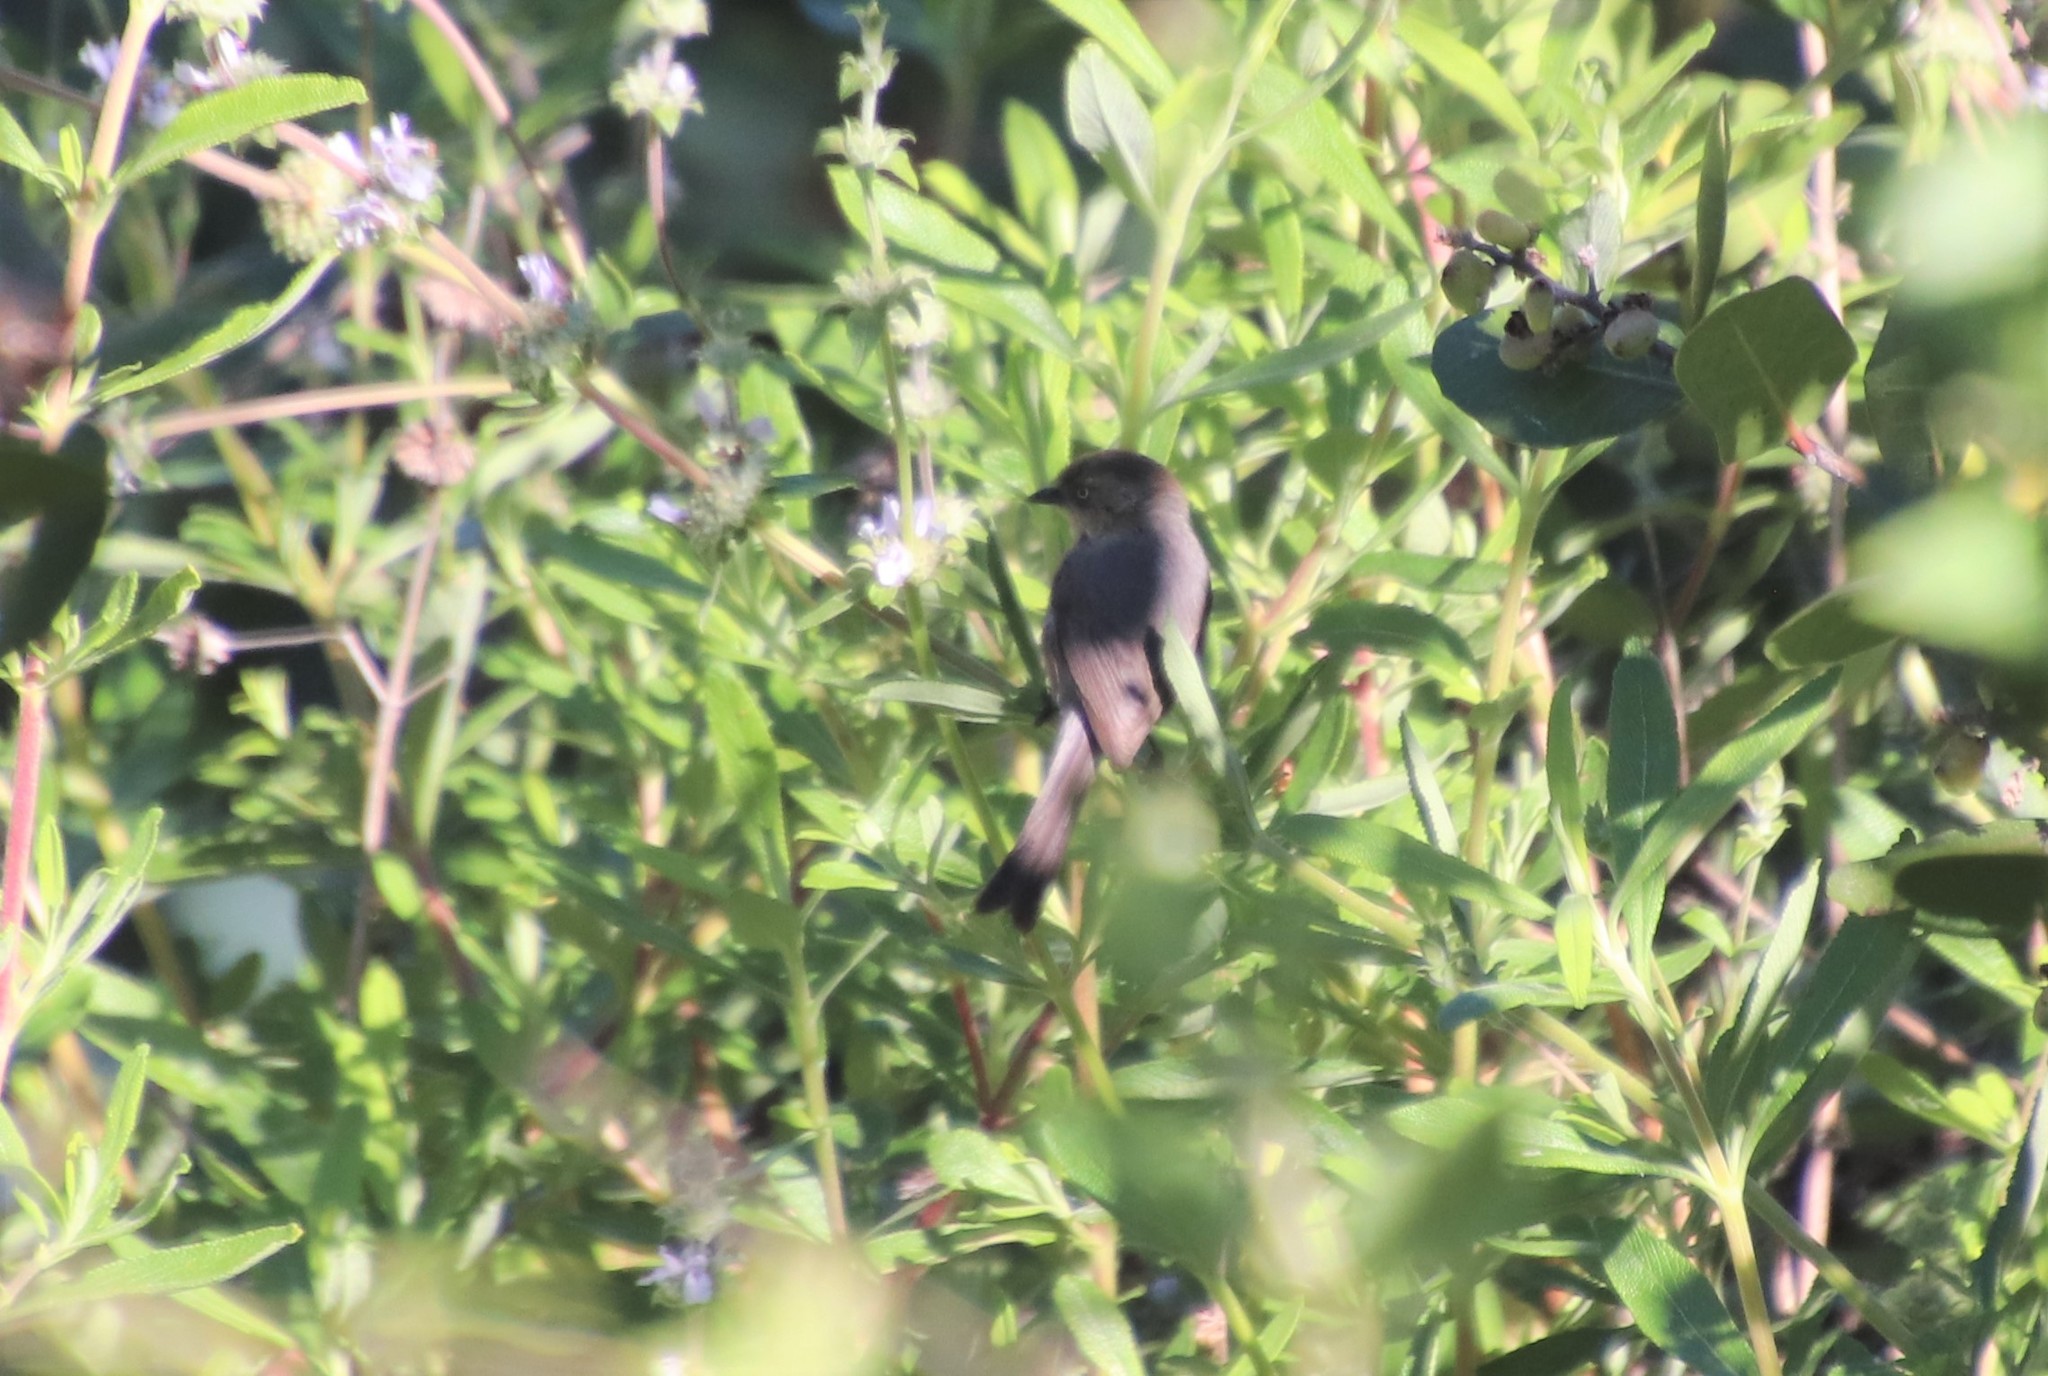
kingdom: Animalia
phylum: Chordata
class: Aves
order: Passeriformes
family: Aegithalidae
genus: Psaltriparus
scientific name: Psaltriparus minimus
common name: American bushtit
